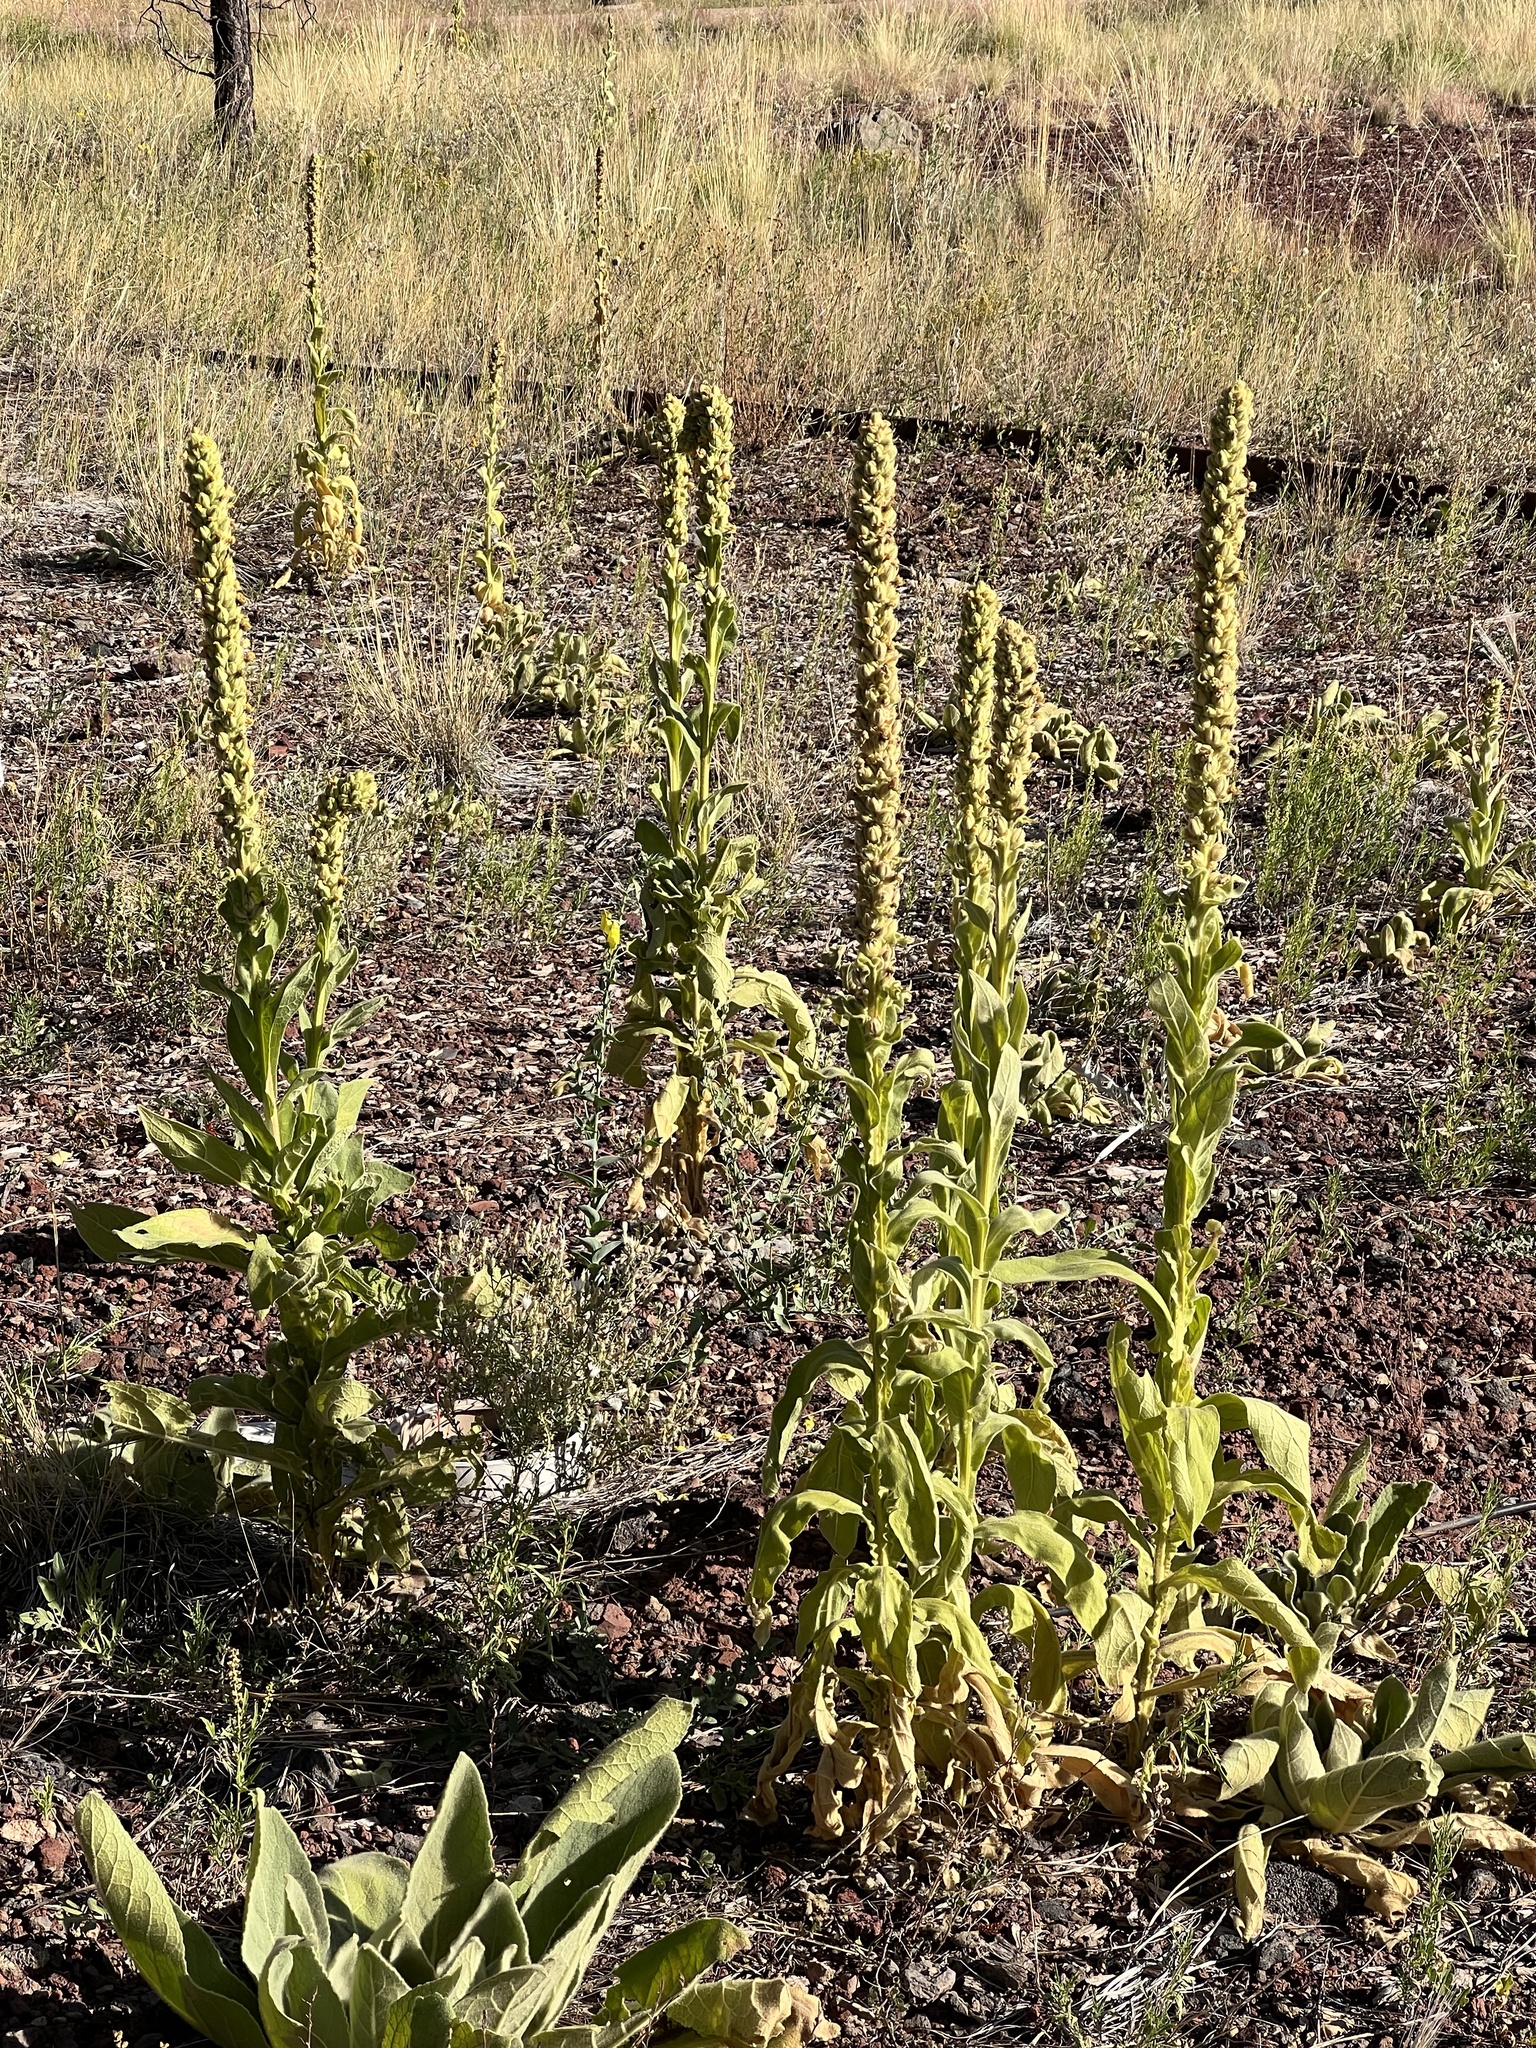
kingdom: Plantae
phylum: Tracheophyta
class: Magnoliopsida
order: Lamiales
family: Scrophulariaceae
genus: Verbascum
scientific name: Verbascum thapsus
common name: Common mullein
